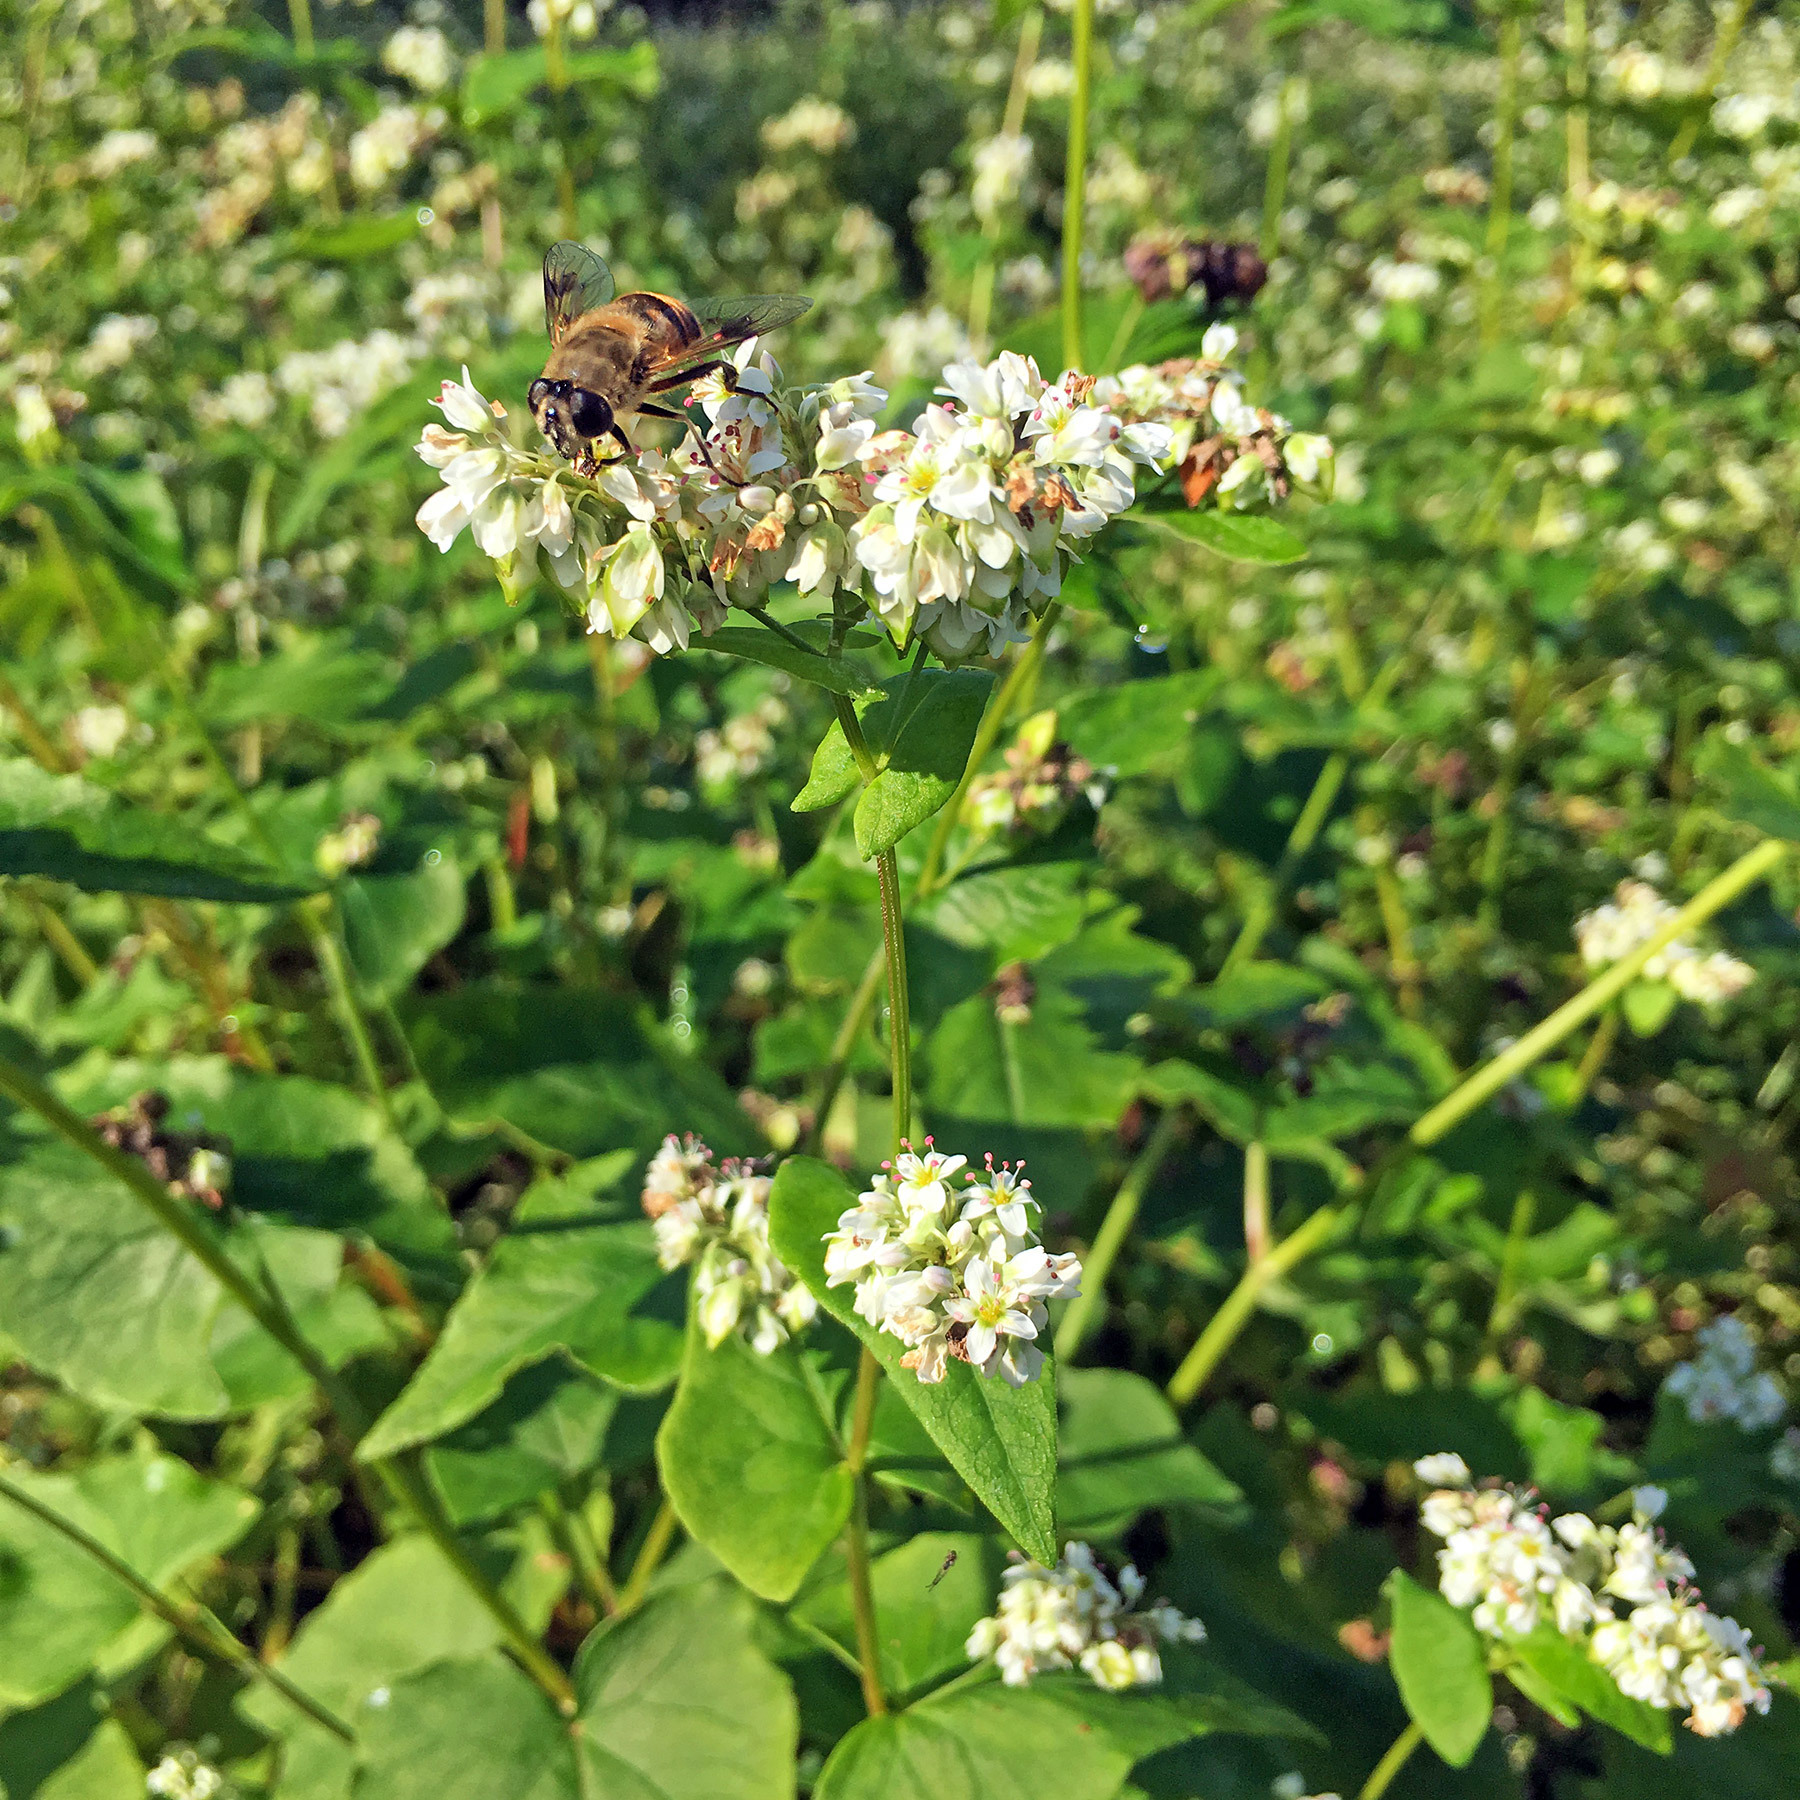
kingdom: Animalia
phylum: Arthropoda
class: Insecta
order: Diptera
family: Syrphidae
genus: Eristalis
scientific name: Eristalis tenax
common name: Drone fly
